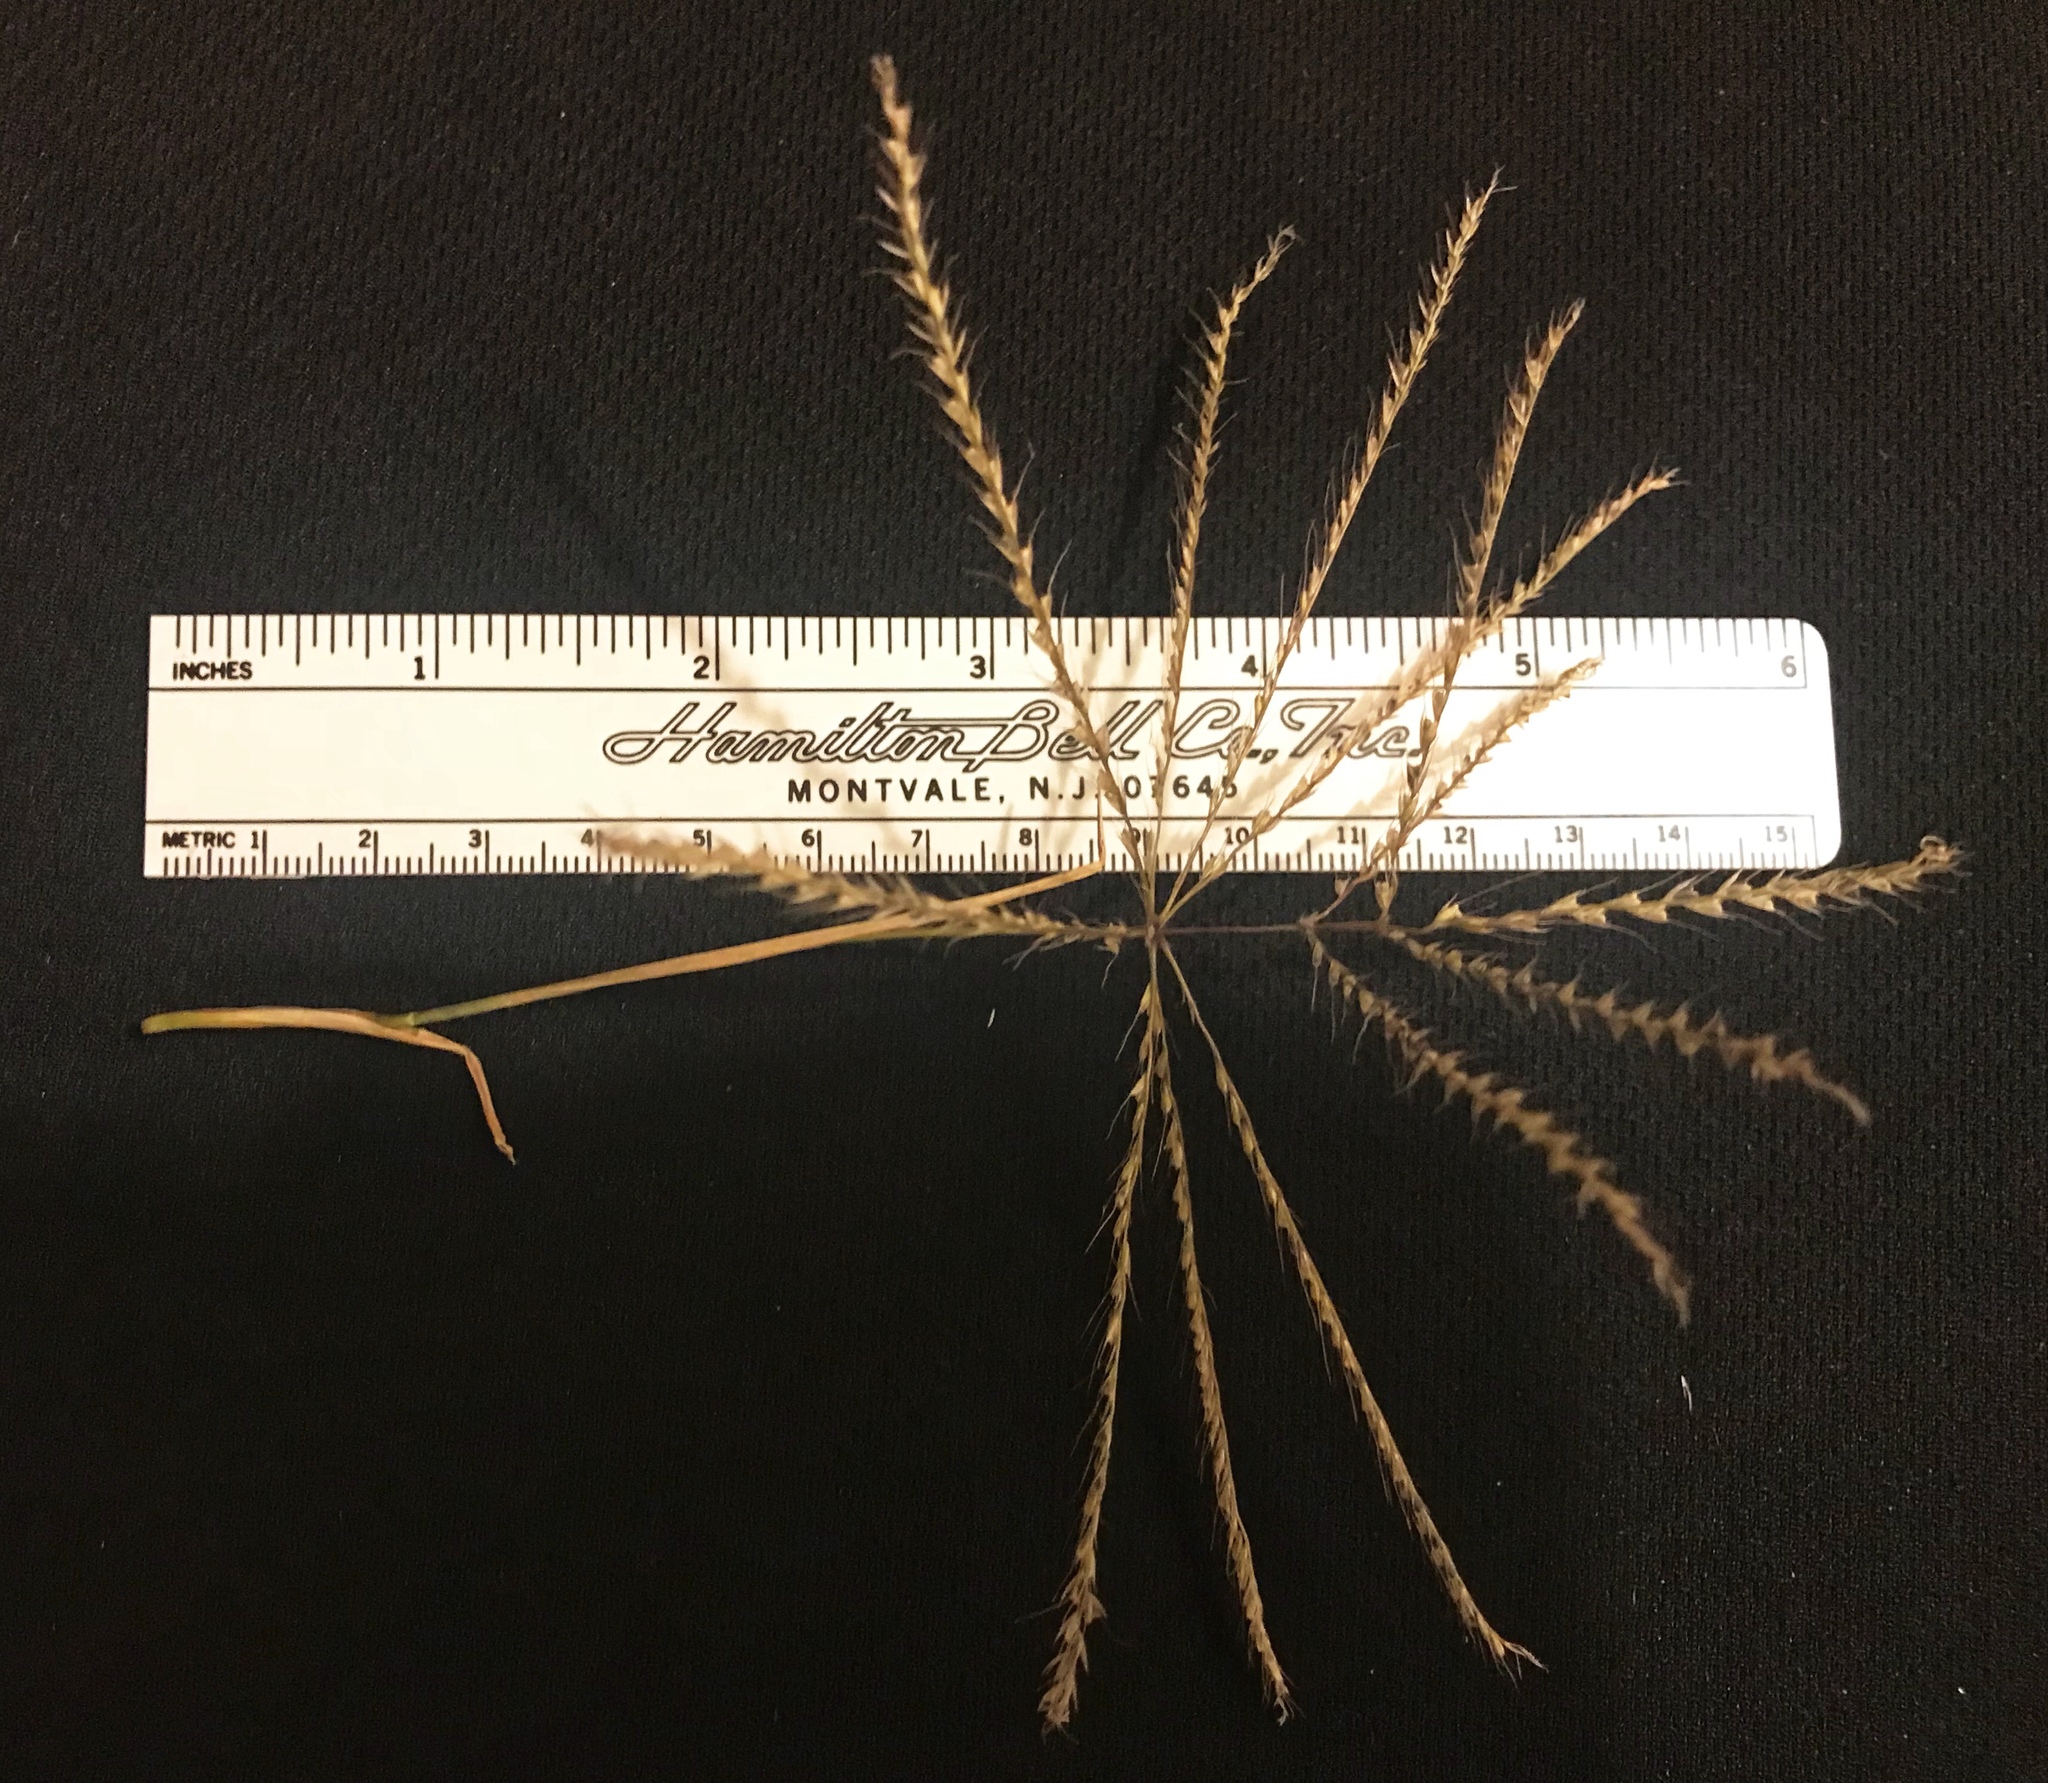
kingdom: Plantae
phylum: Tracheophyta
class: Liliopsida
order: Poales
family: Poaceae
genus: Chloris
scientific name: Chloris verticillata
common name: Tumble windmill grass
